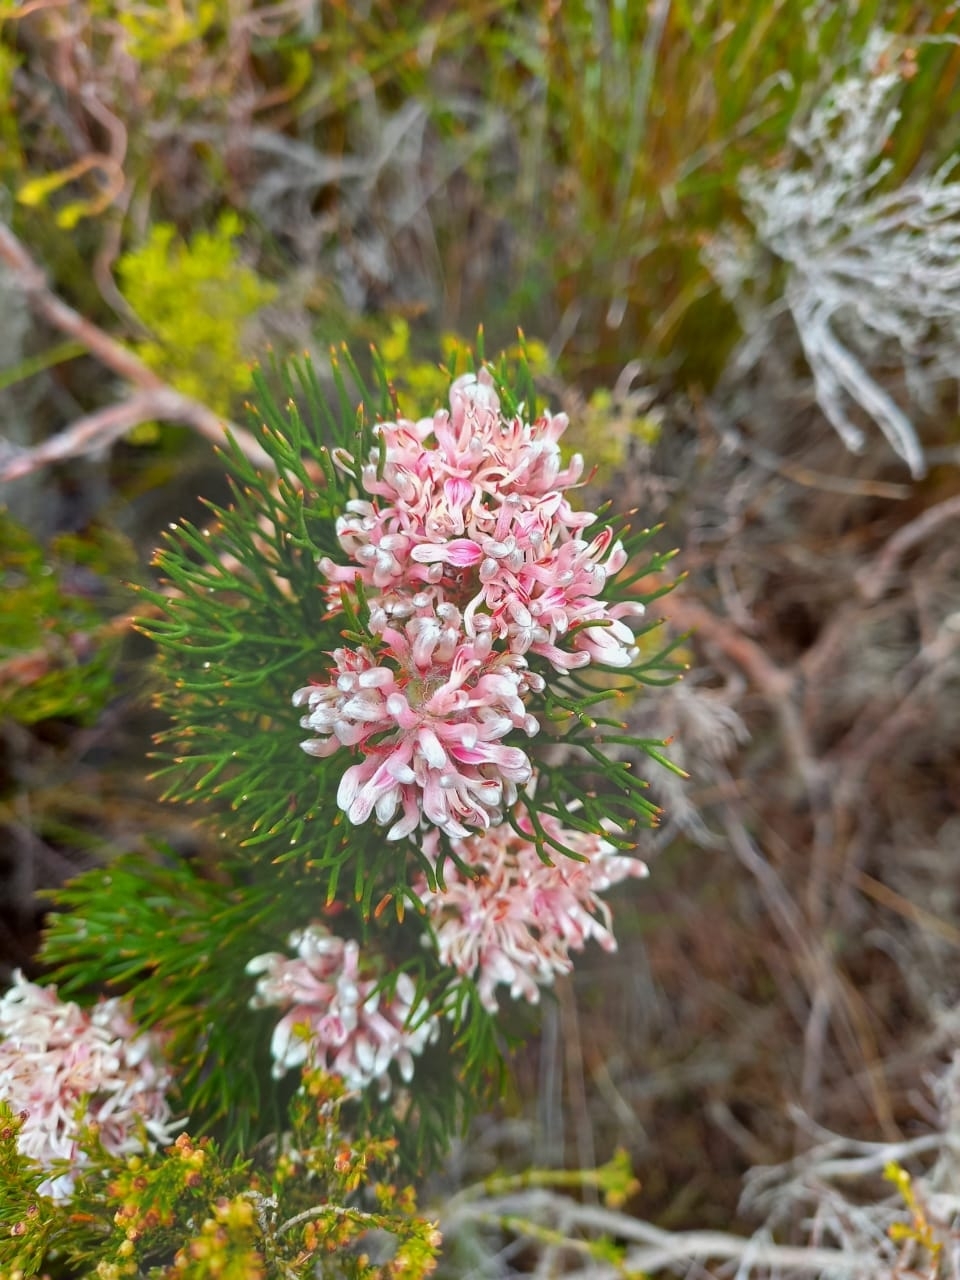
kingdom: Plantae
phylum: Tracheophyta
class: Magnoliopsida
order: Proteales
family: Proteaceae
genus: Serruria
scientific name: Serruria rubricaulis
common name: Red-stem spiderhead
